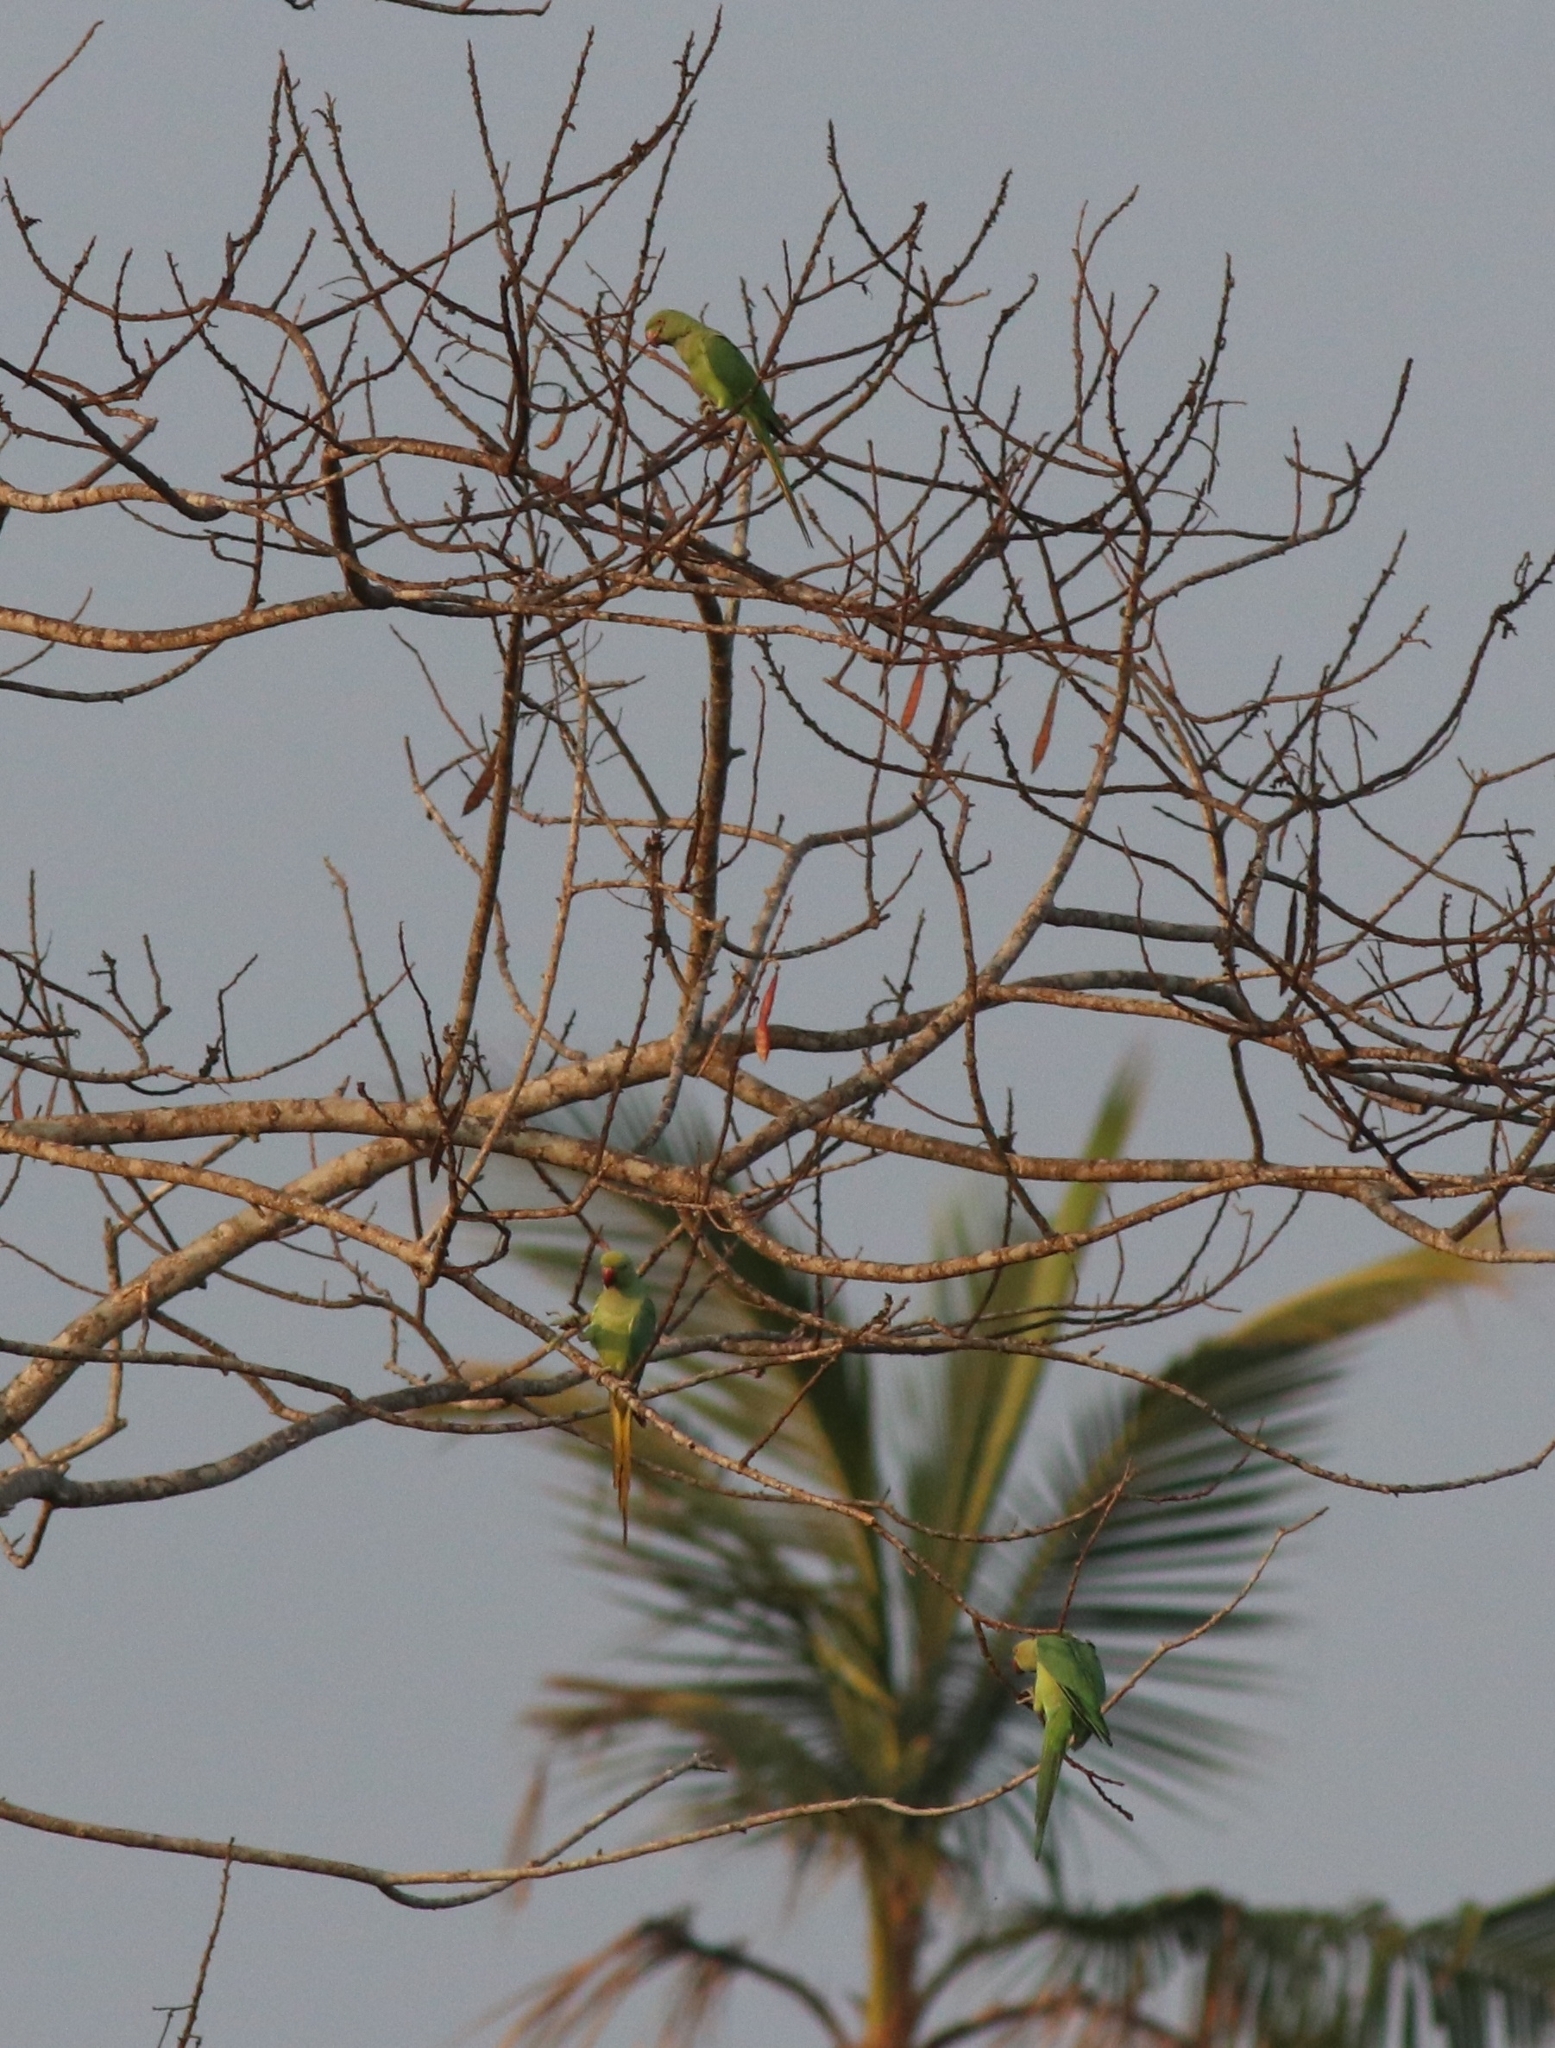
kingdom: Animalia
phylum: Chordata
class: Aves
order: Psittaciformes
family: Psittacidae
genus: Psittacula
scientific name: Psittacula krameri
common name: Rose-ringed parakeet
